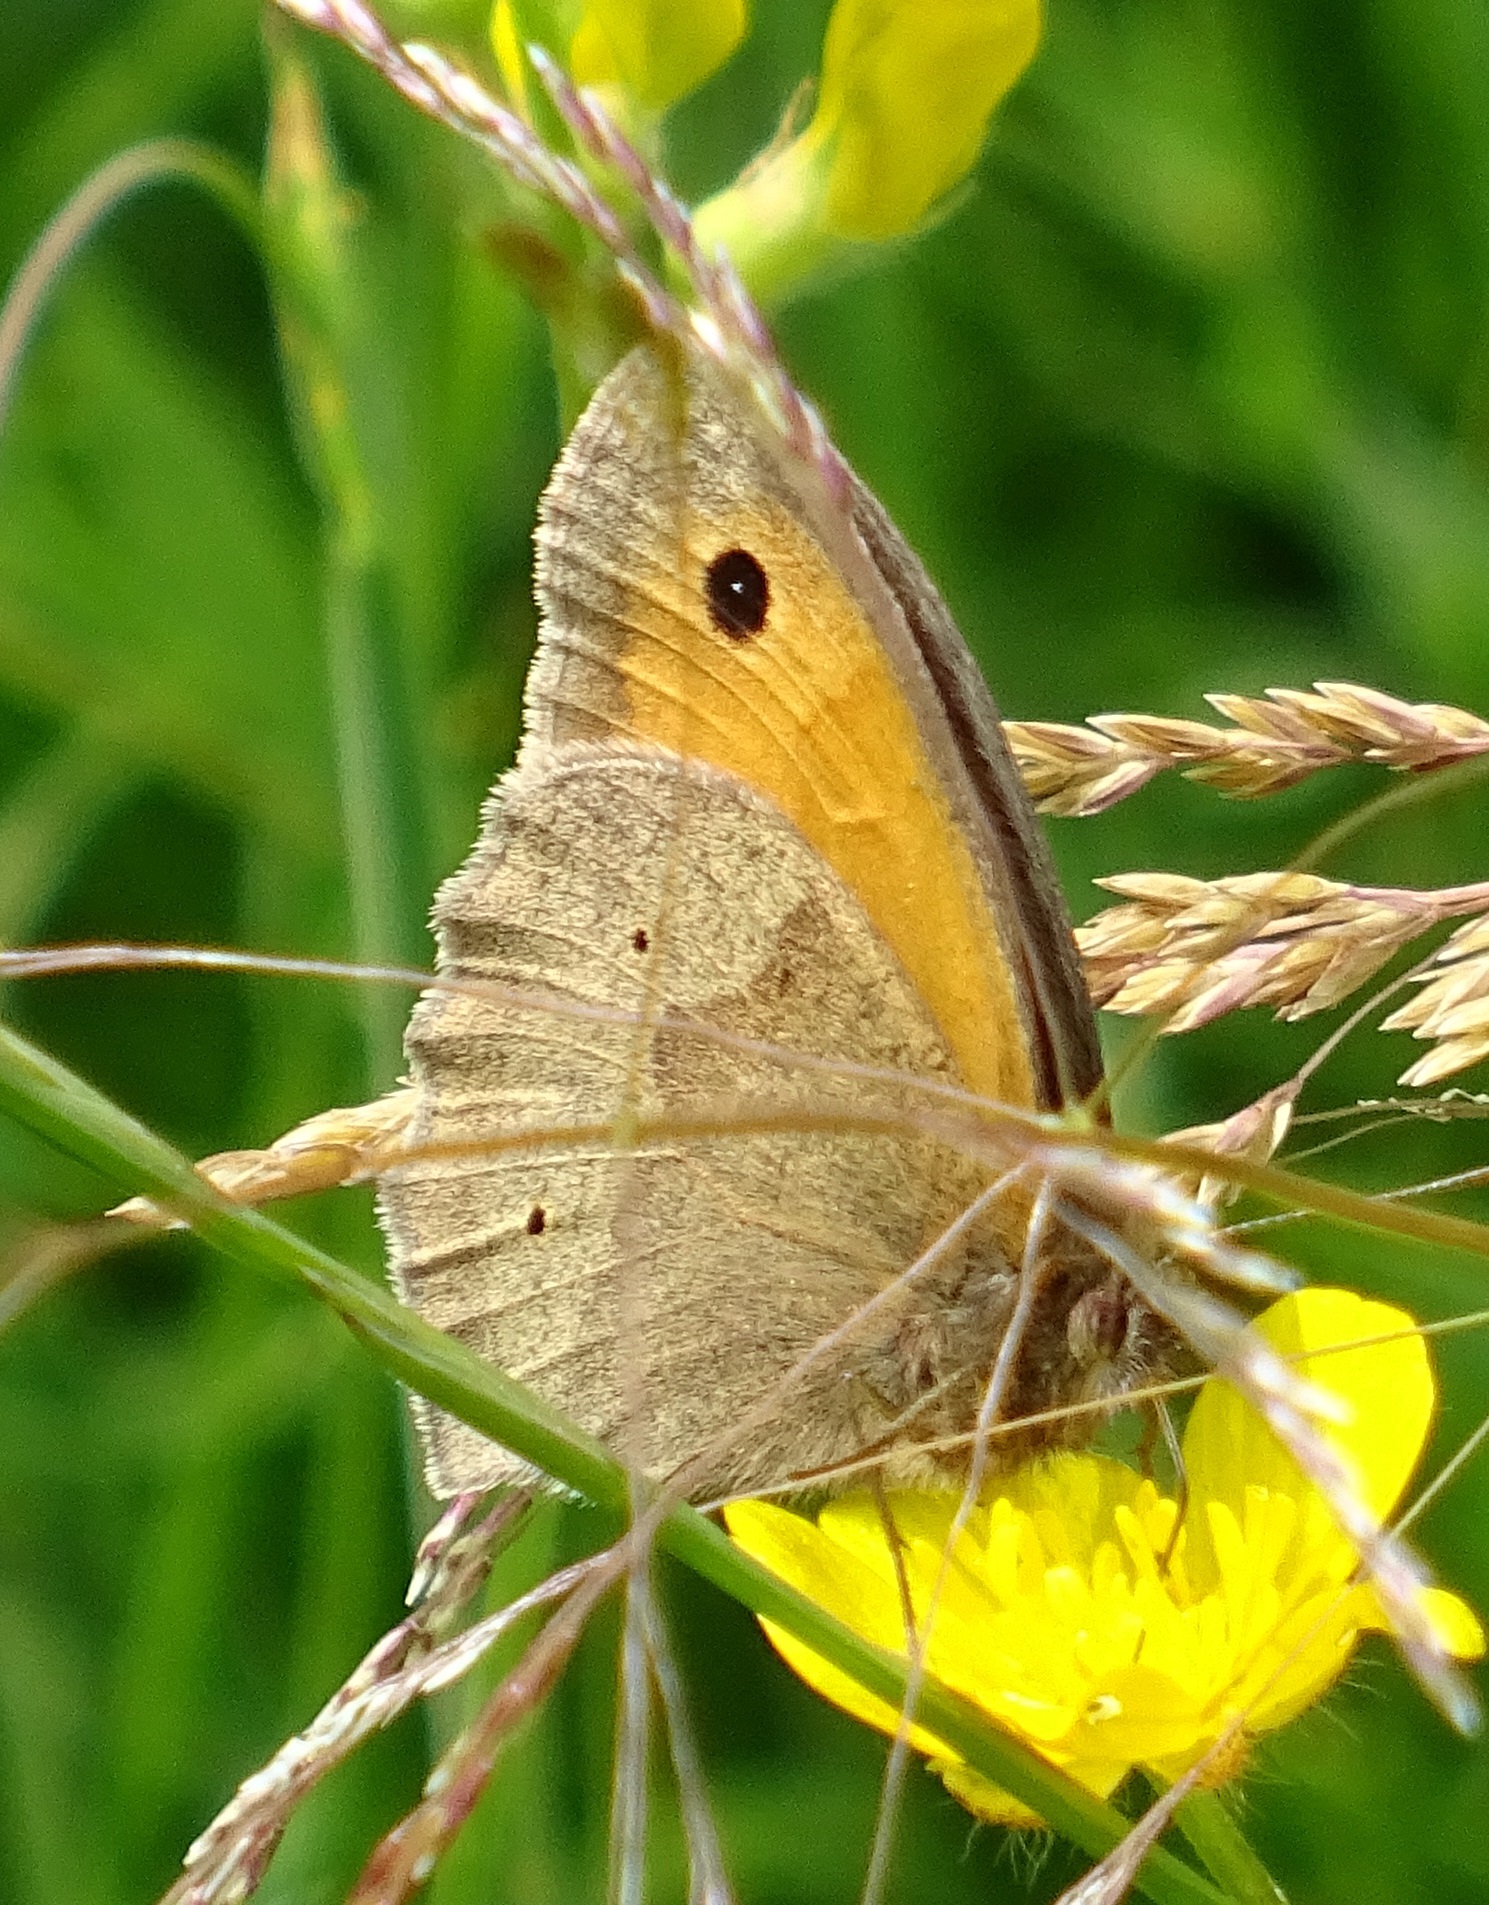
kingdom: Animalia
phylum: Arthropoda
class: Insecta
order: Lepidoptera
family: Nymphalidae
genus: Maniola
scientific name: Maniola jurtina
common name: Meadow brown
